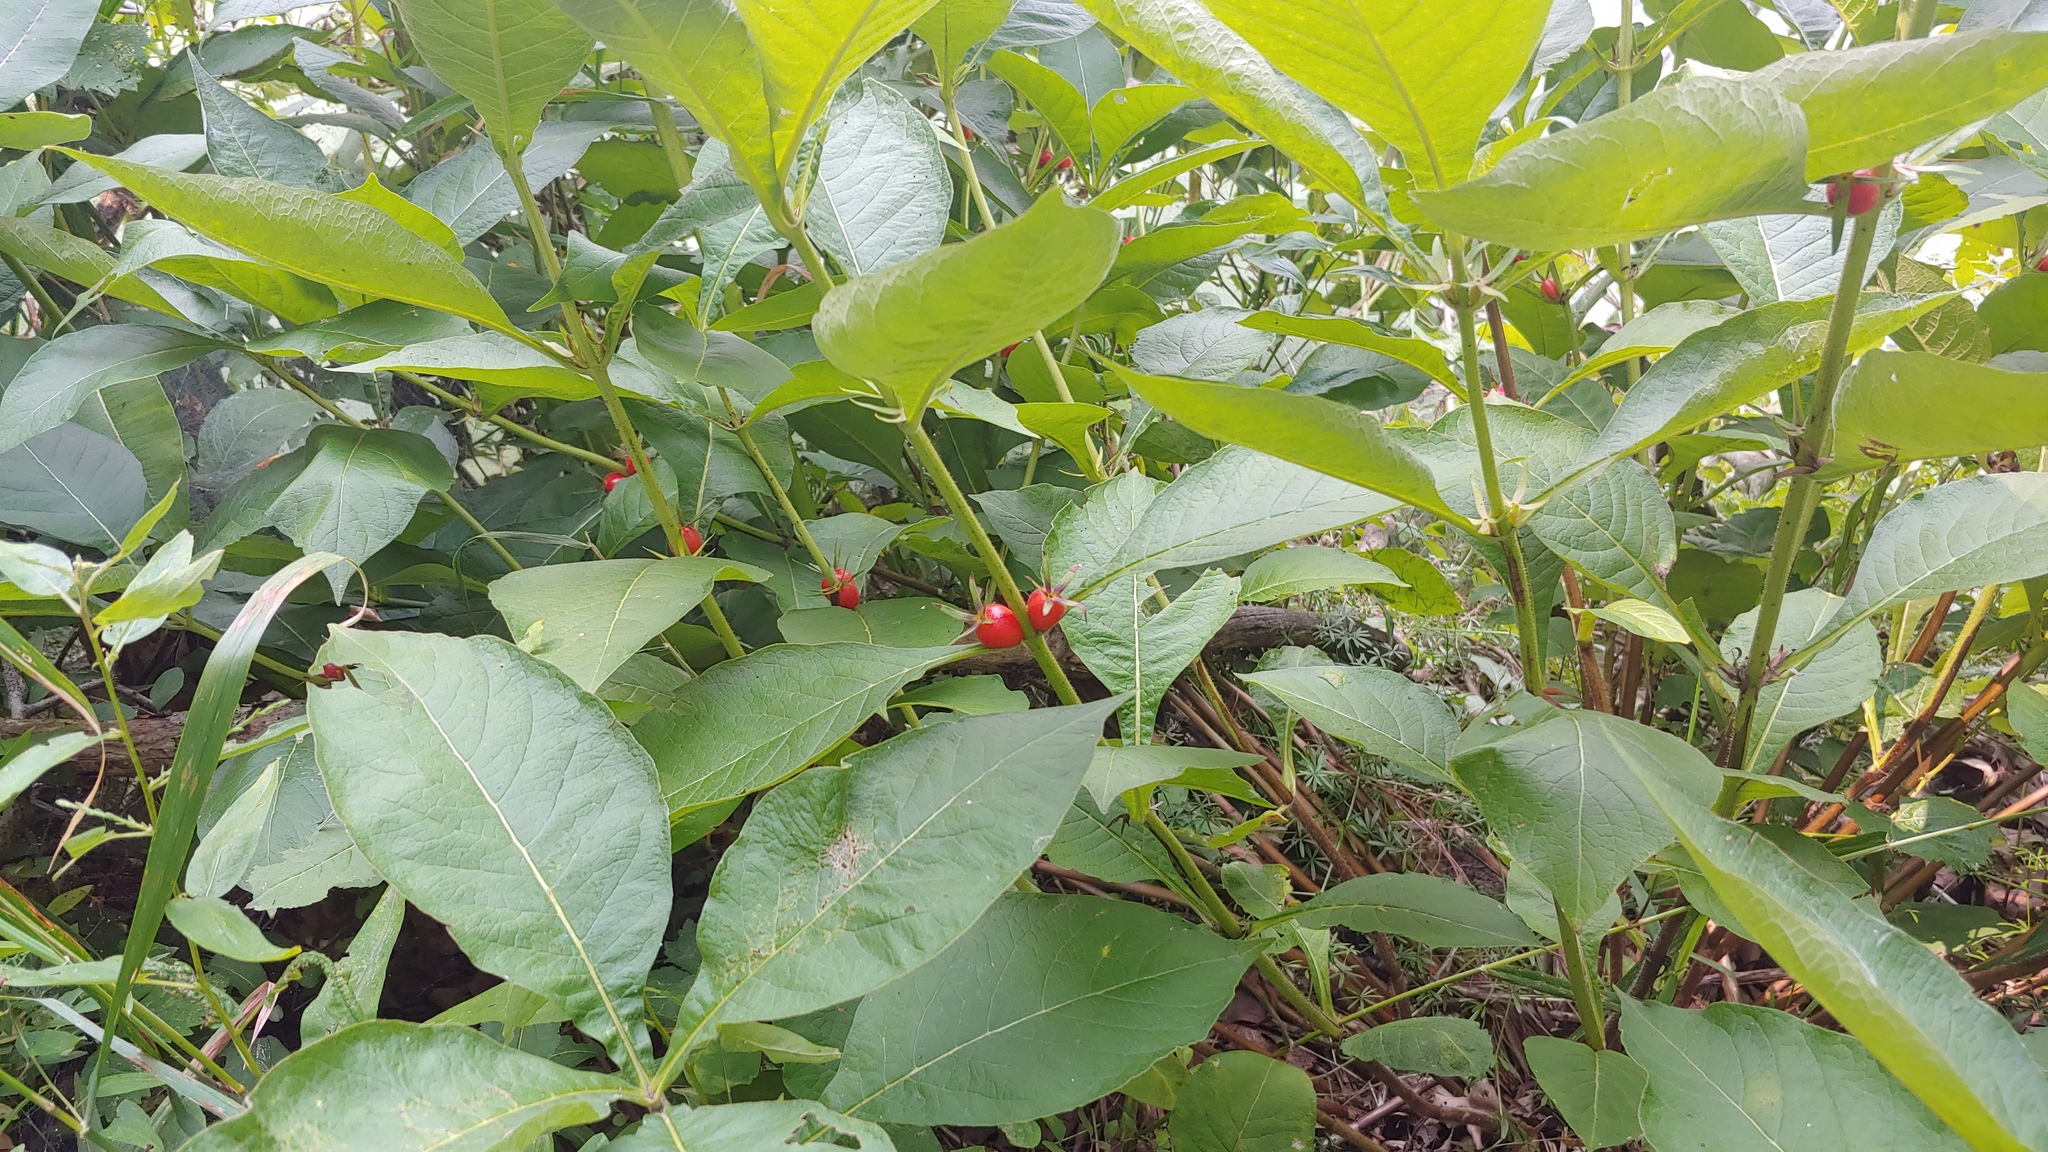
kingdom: Plantae
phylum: Tracheophyta
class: Magnoliopsida
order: Dipsacales
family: Caprifoliaceae
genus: Triosteum
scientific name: Triosteum aurantiacum
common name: Coffee tinker's-weed
